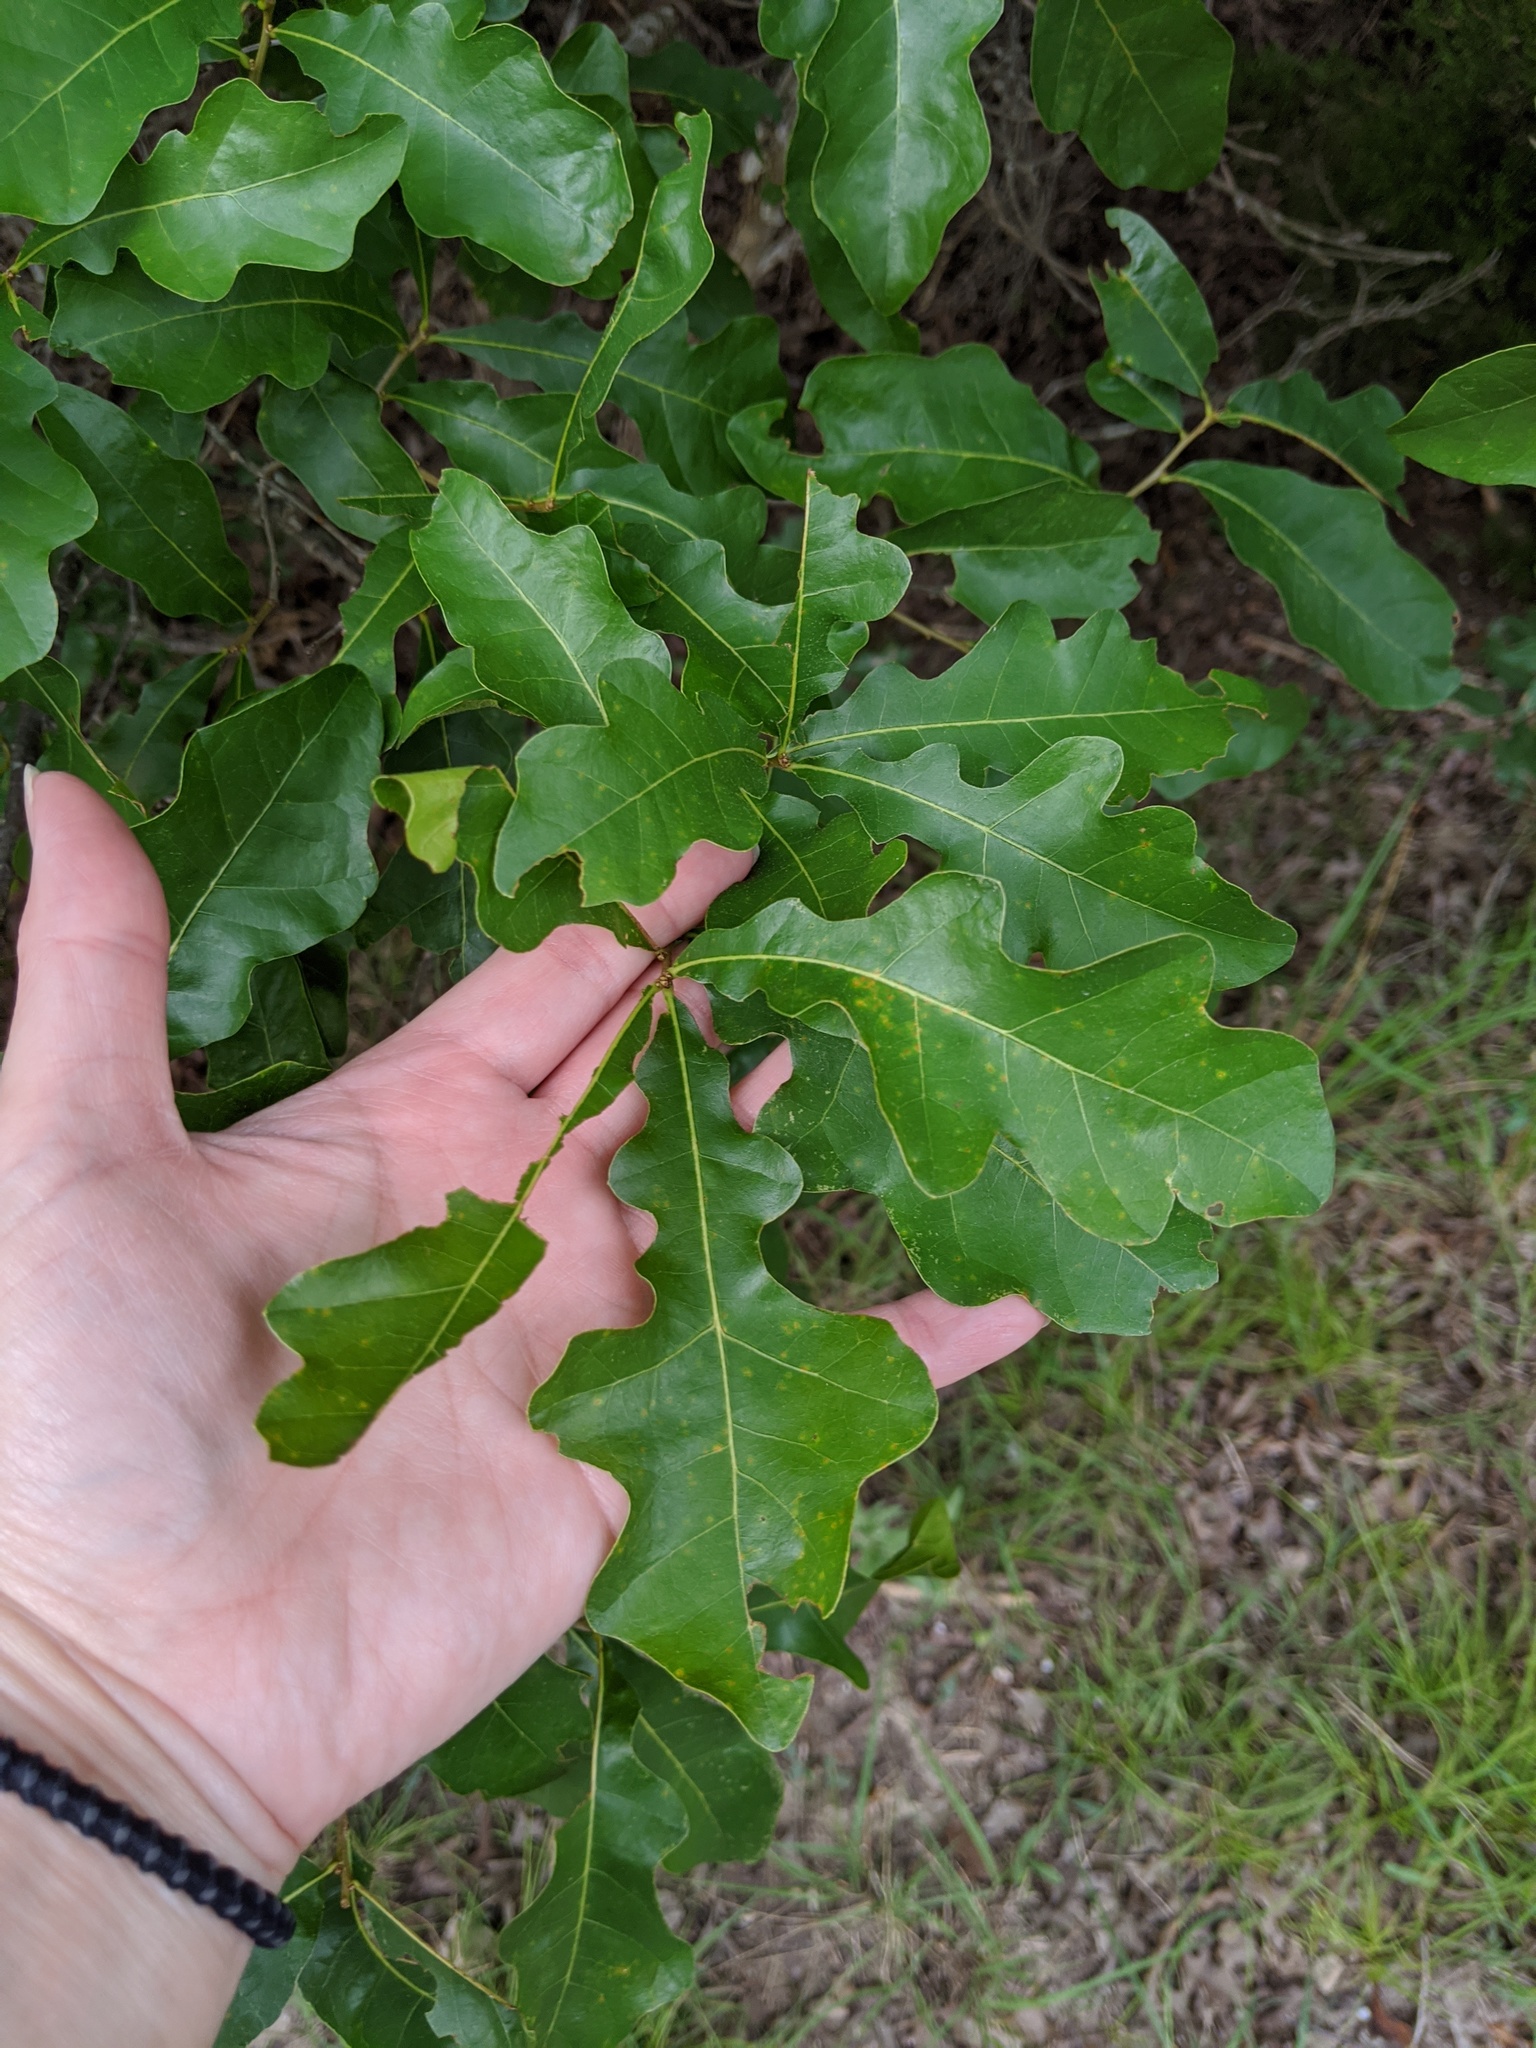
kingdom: Plantae
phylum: Tracheophyta
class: Magnoliopsida
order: Fagales
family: Fagaceae
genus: Quercus
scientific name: Quercus sinuata
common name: Durand oak
